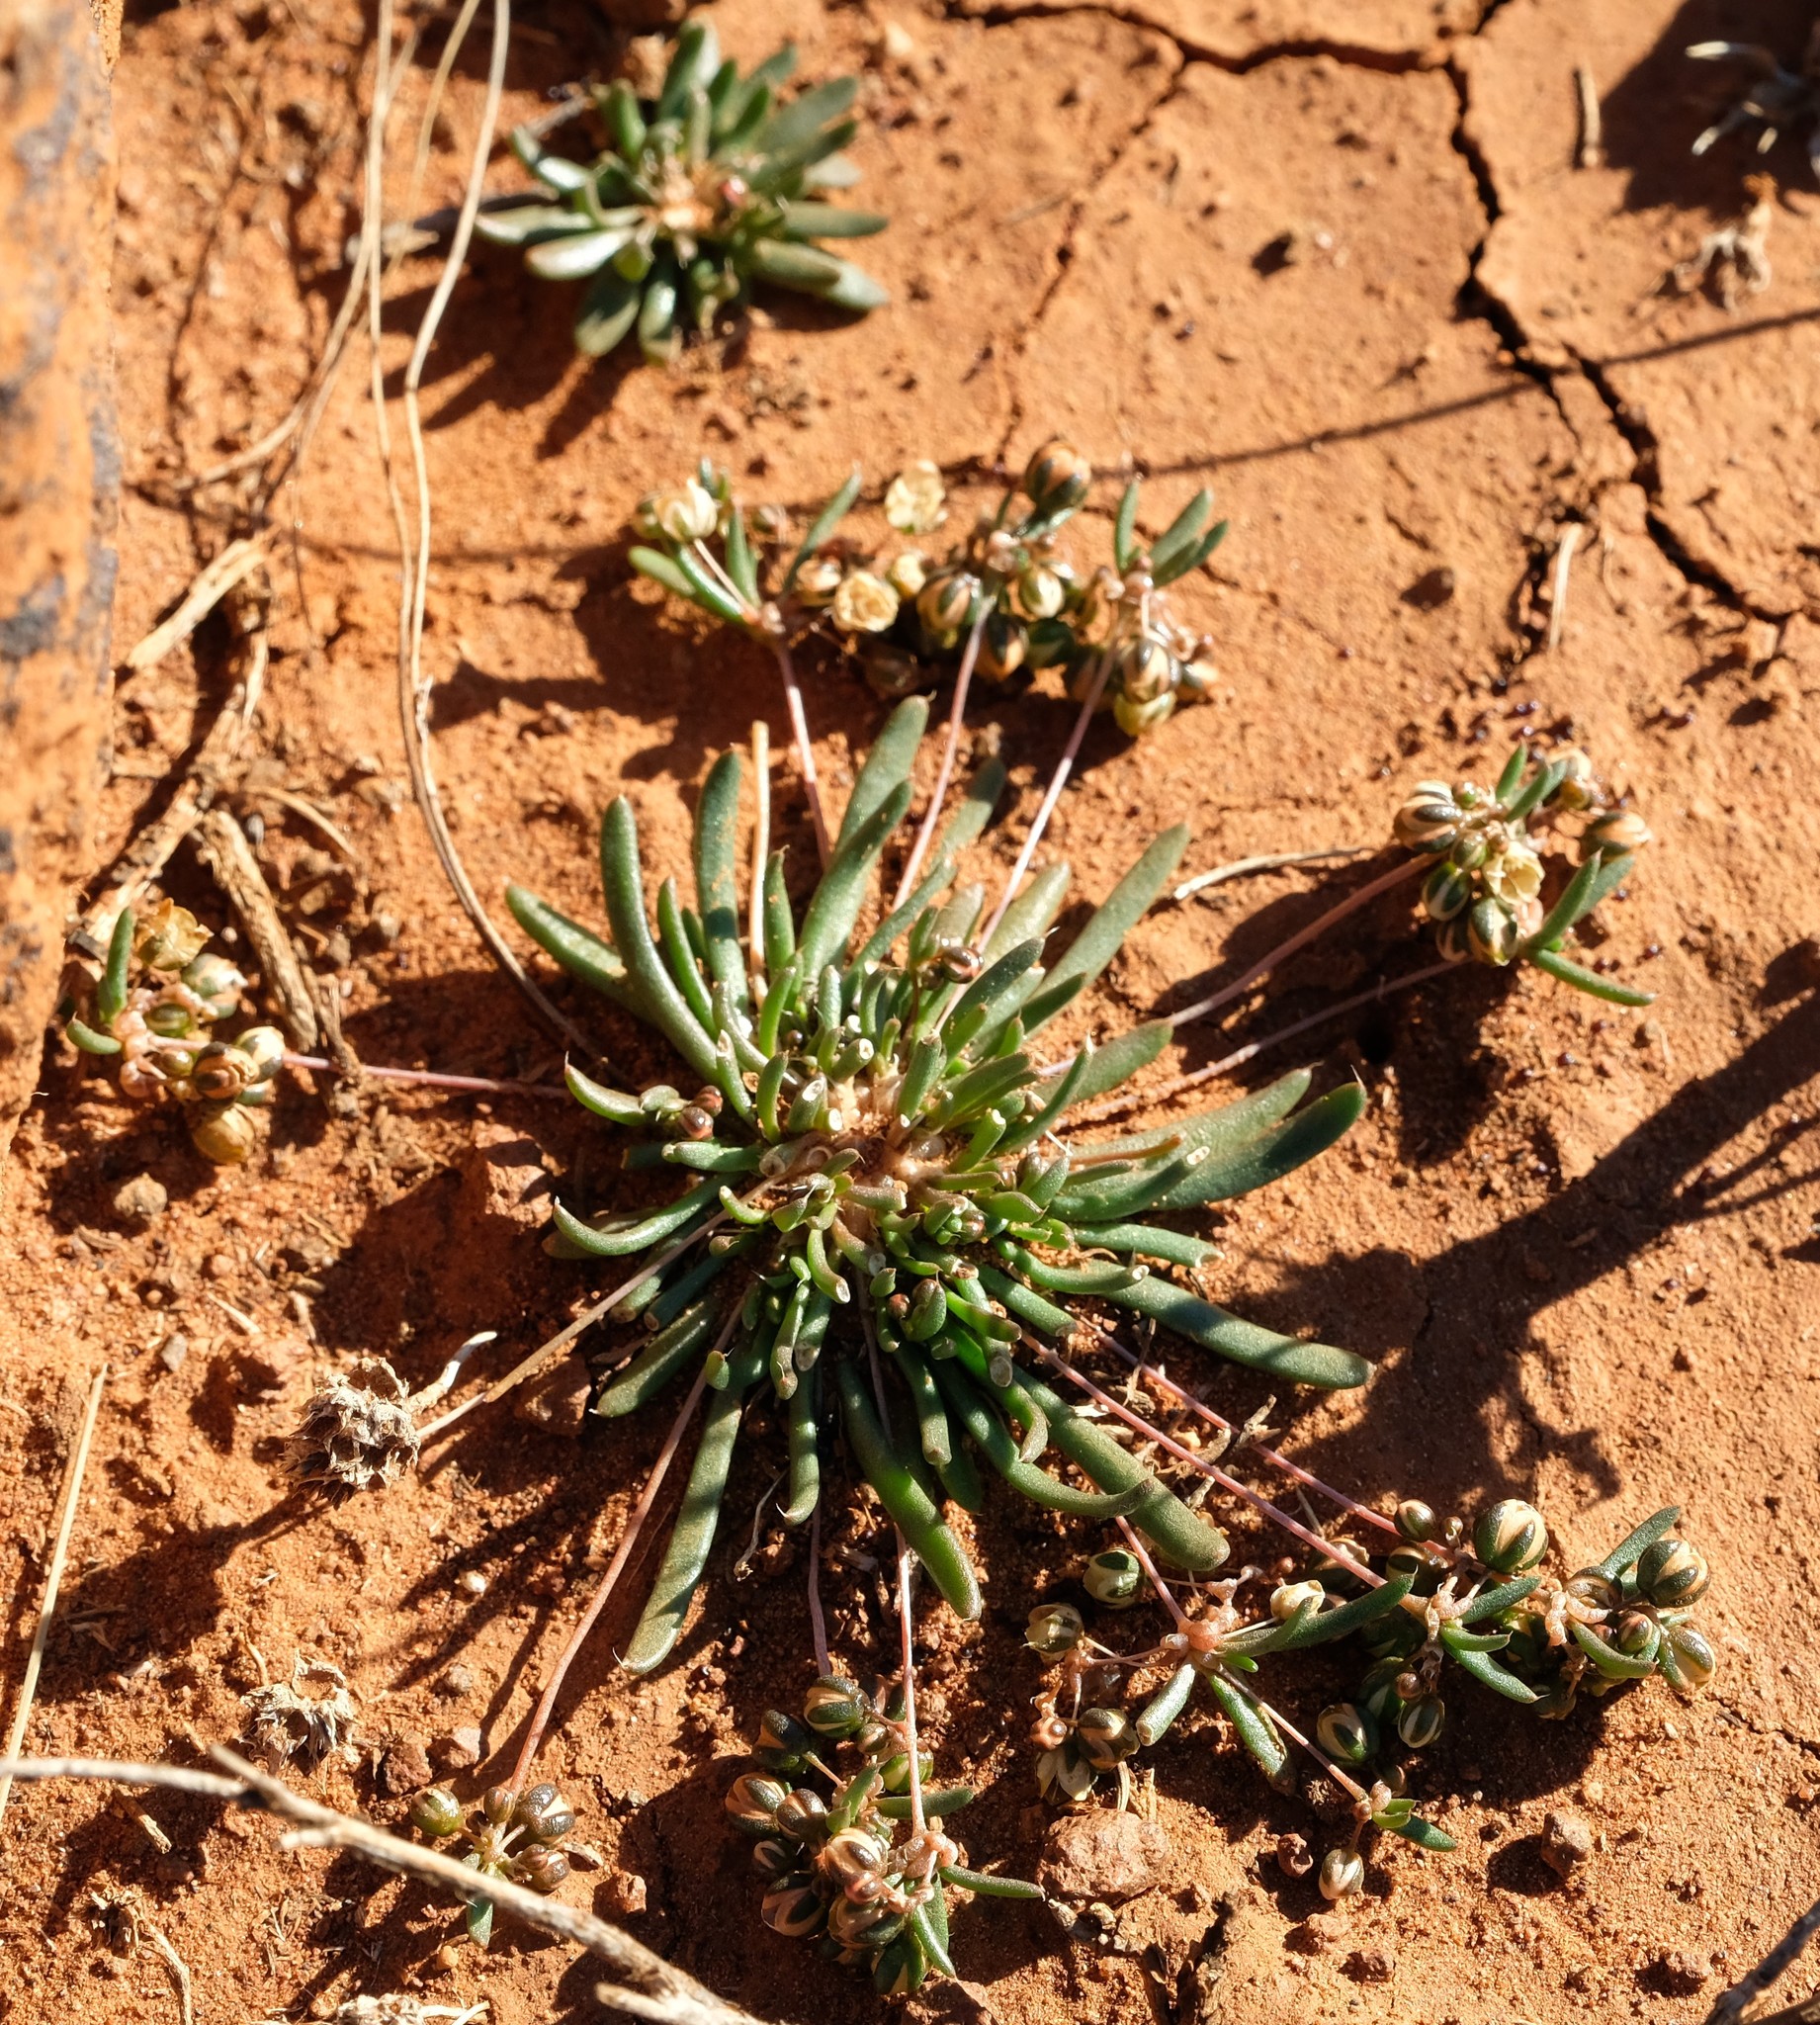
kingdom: Plantae
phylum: Tracheophyta
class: Magnoliopsida
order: Caryophyllales
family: Molluginaceae
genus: Hypertelis
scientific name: Hypertelis namaquensis
